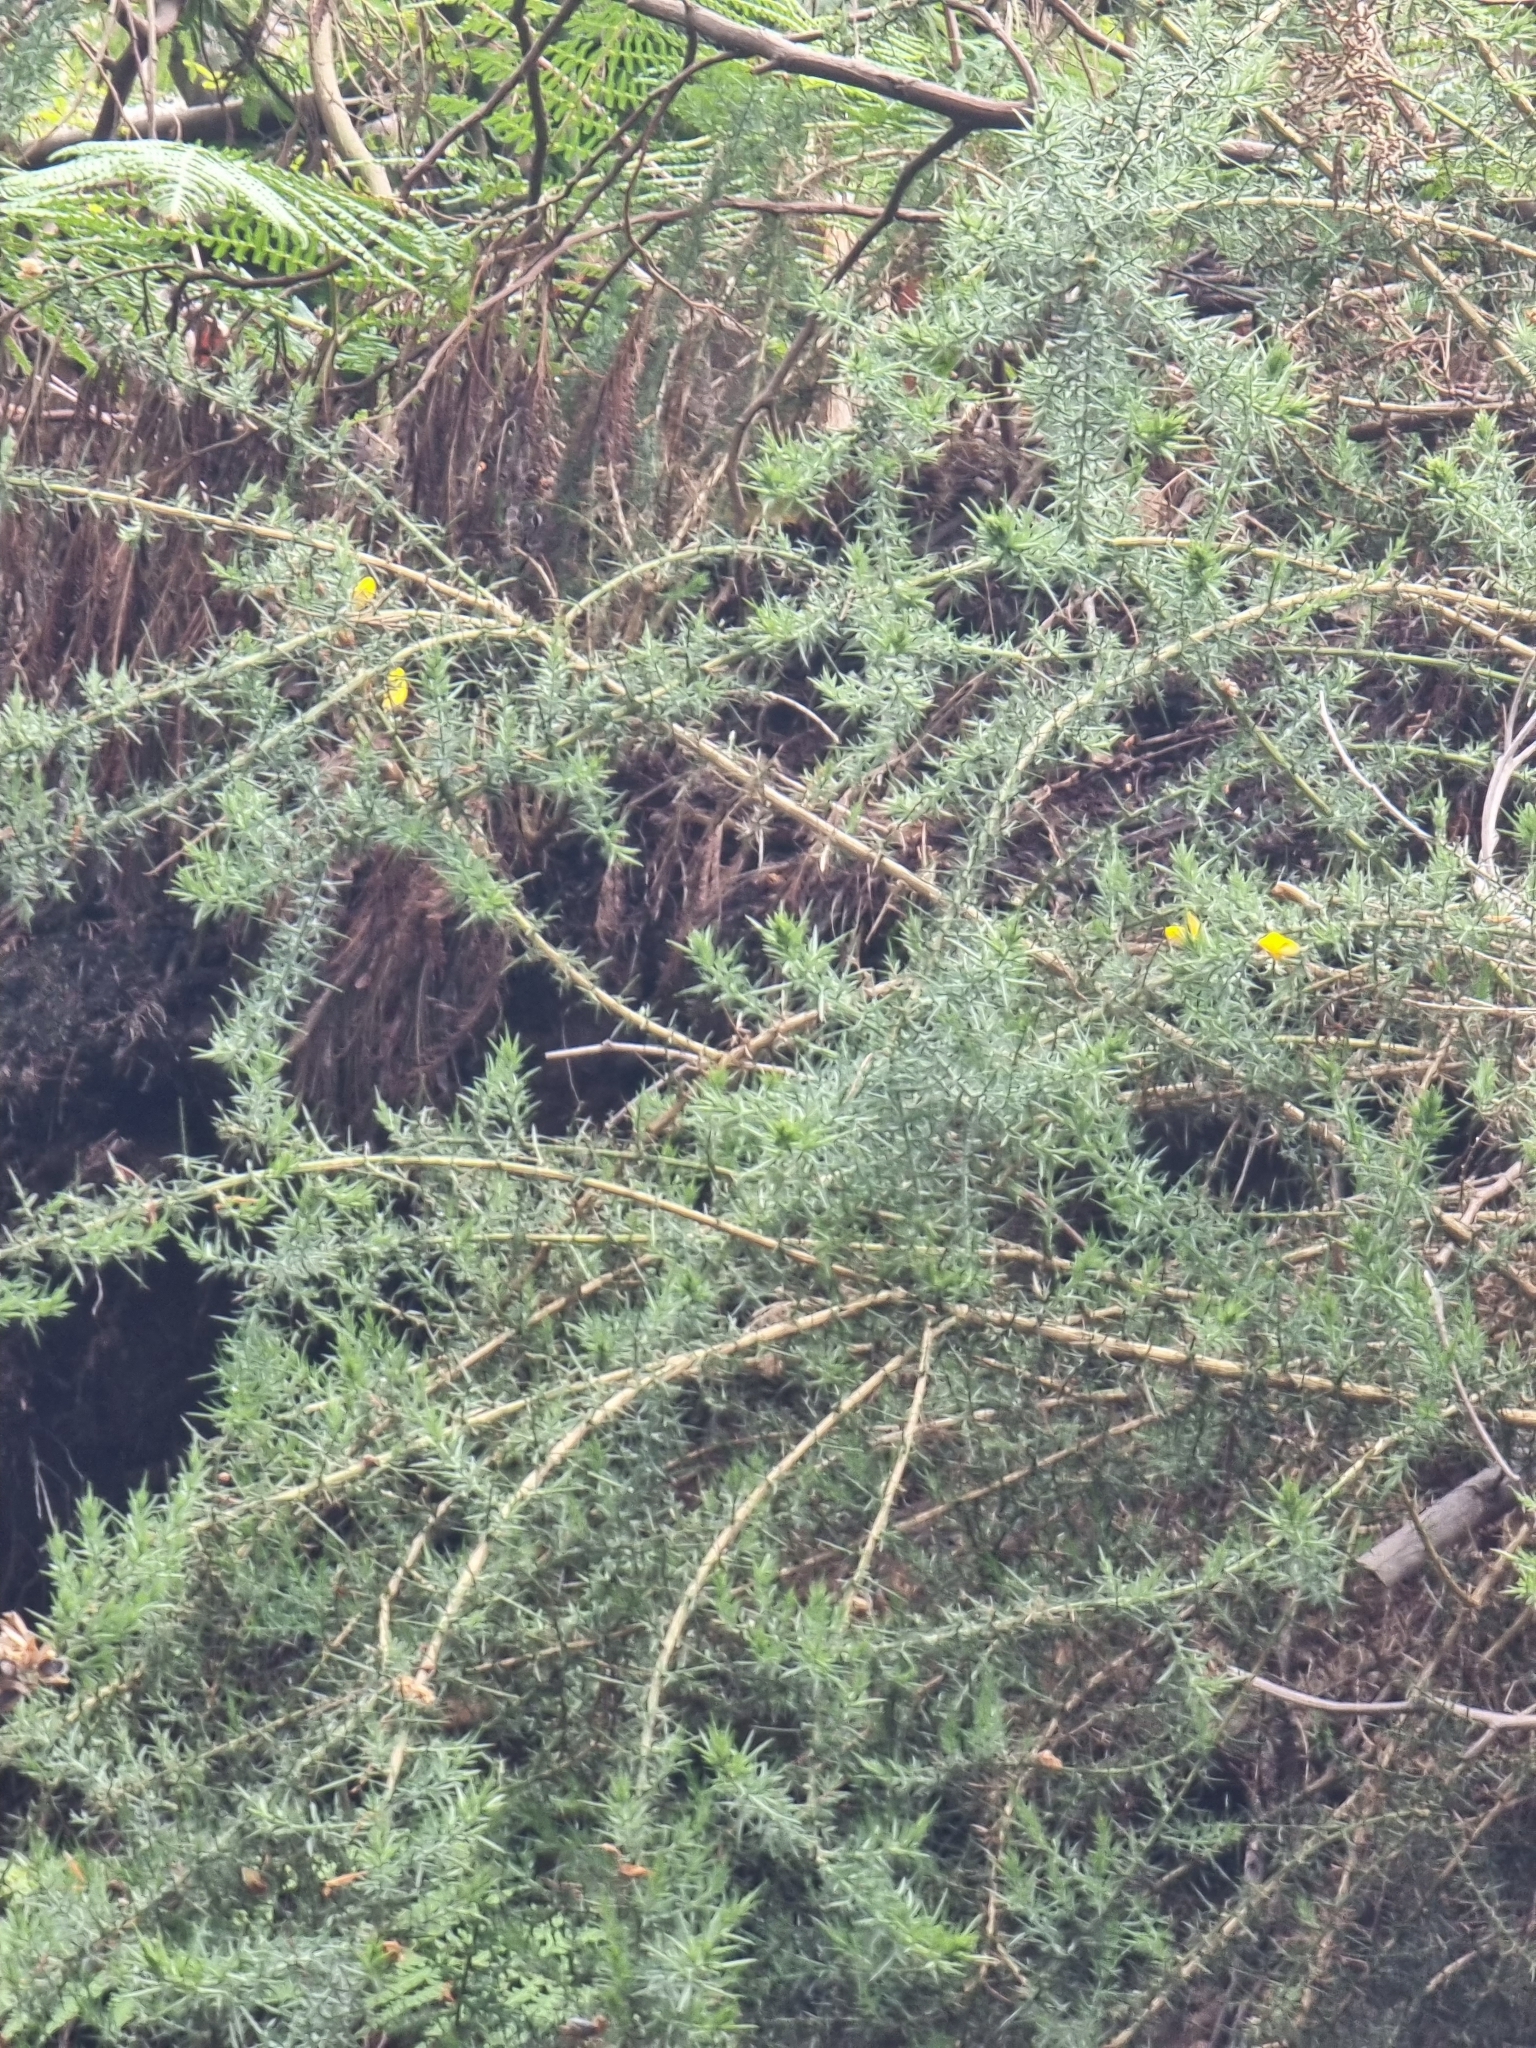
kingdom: Plantae
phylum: Tracheophyta
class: Magnoliopsida
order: Fabales
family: Fabaceae
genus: Ulex
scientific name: Ulex europaeus
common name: Common gorse
